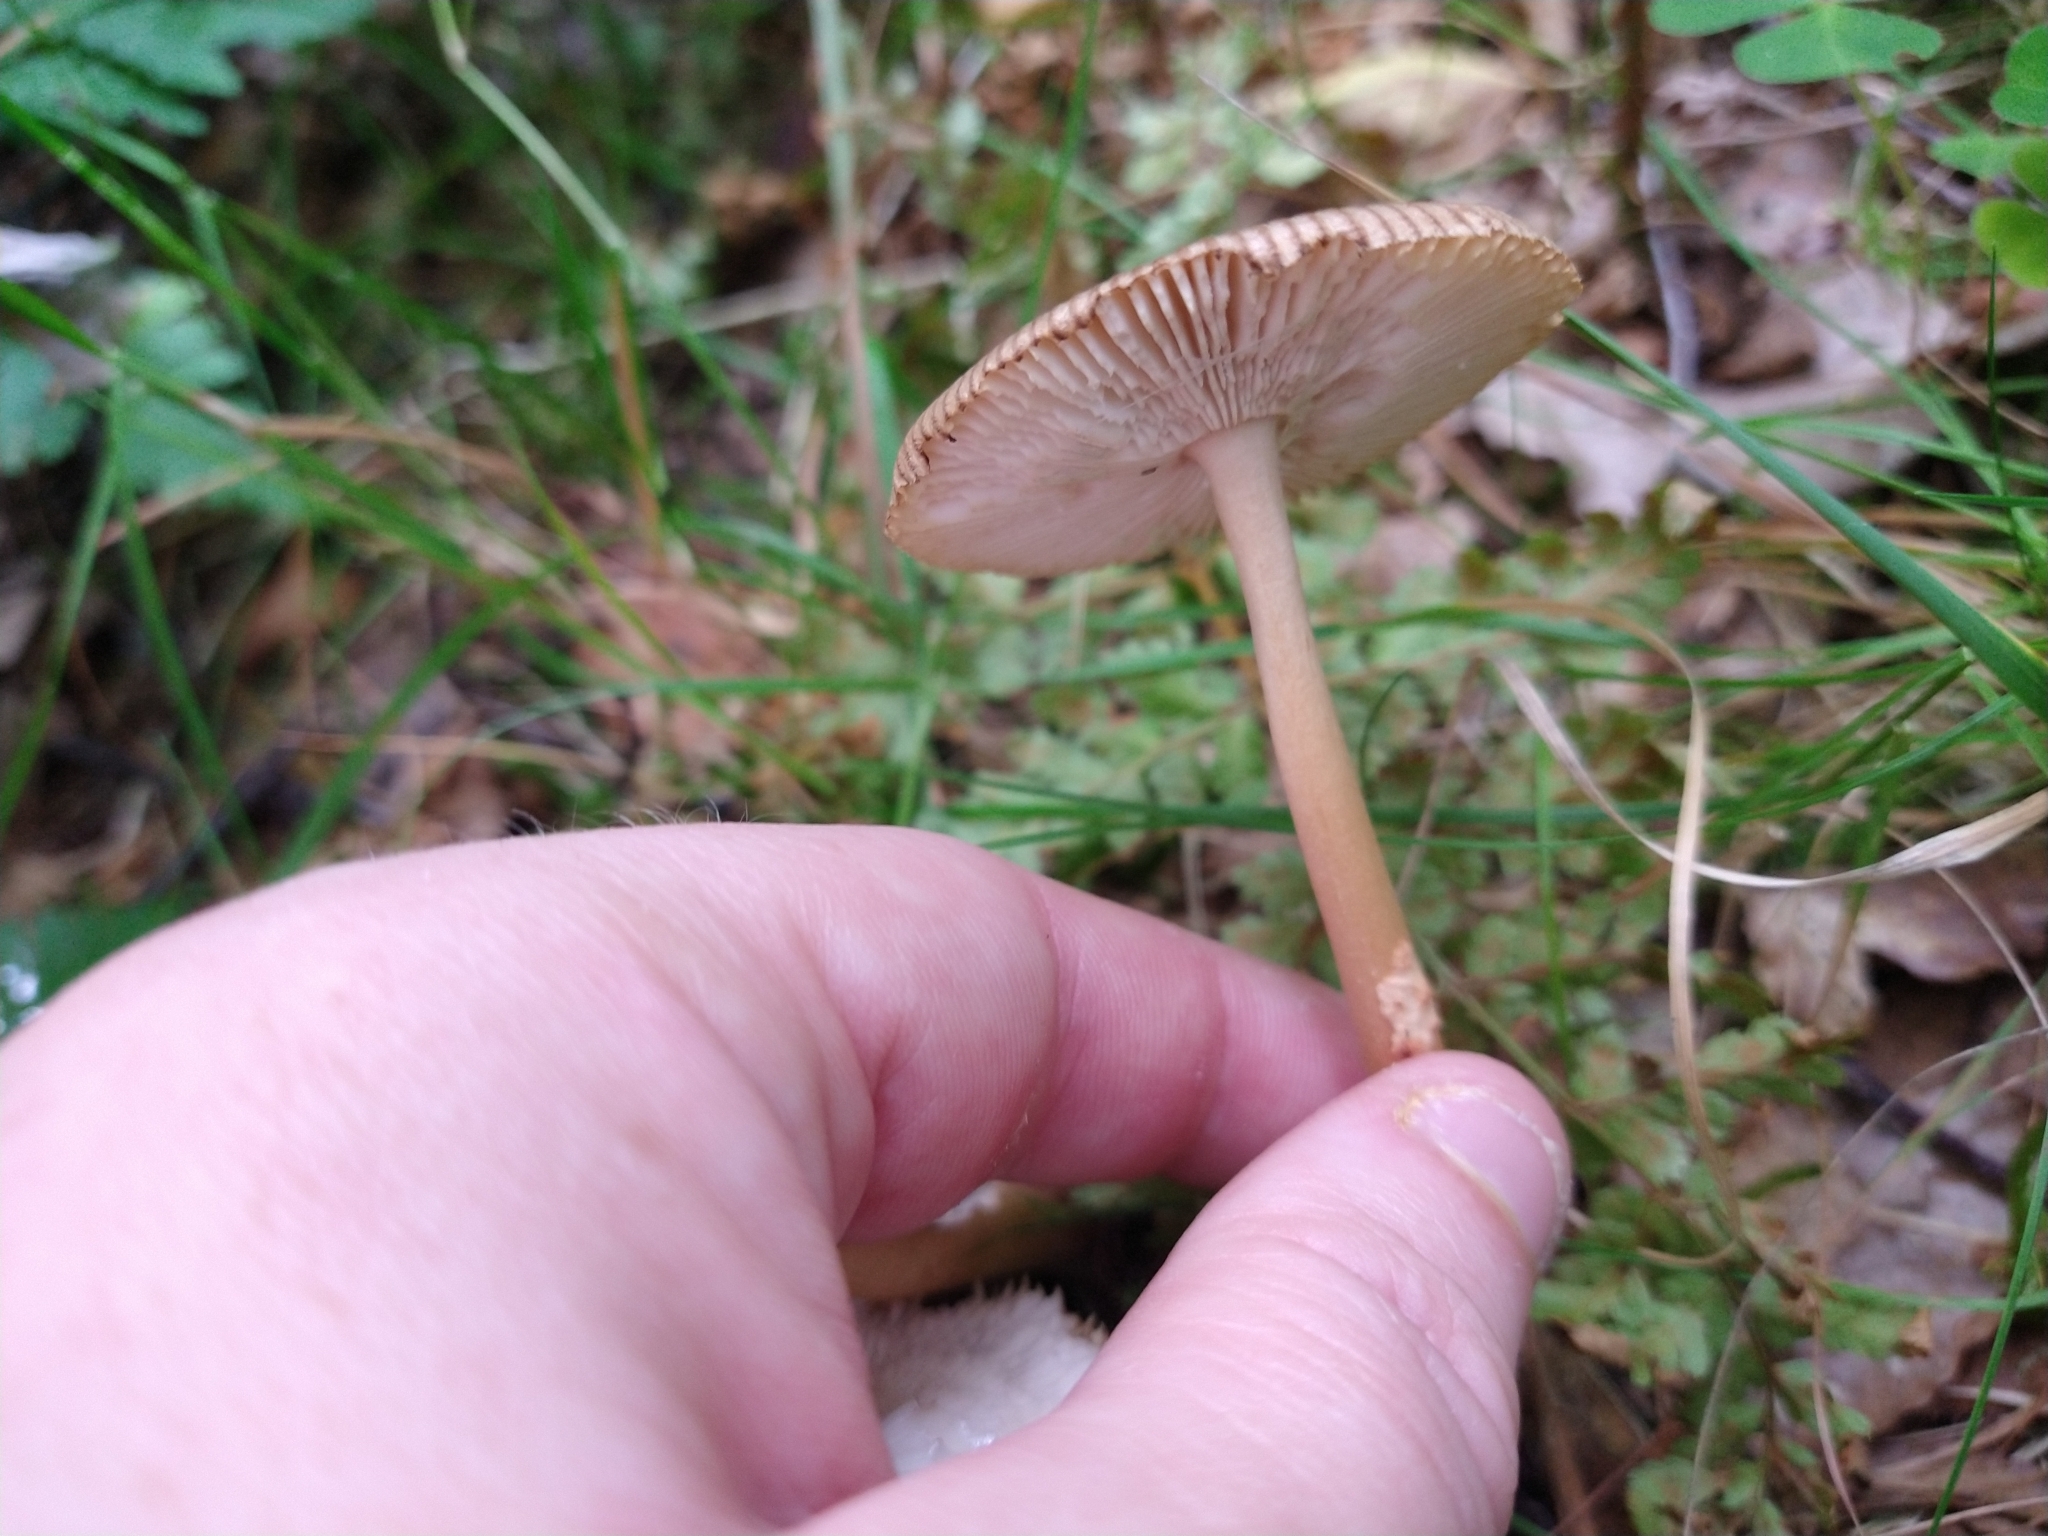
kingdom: Fungi
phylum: Basidiomycota
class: Agaricomycetes
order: Agaricales
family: Amanitaceae
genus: Amanita
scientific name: Amanita fulva
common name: Tawny grisette
